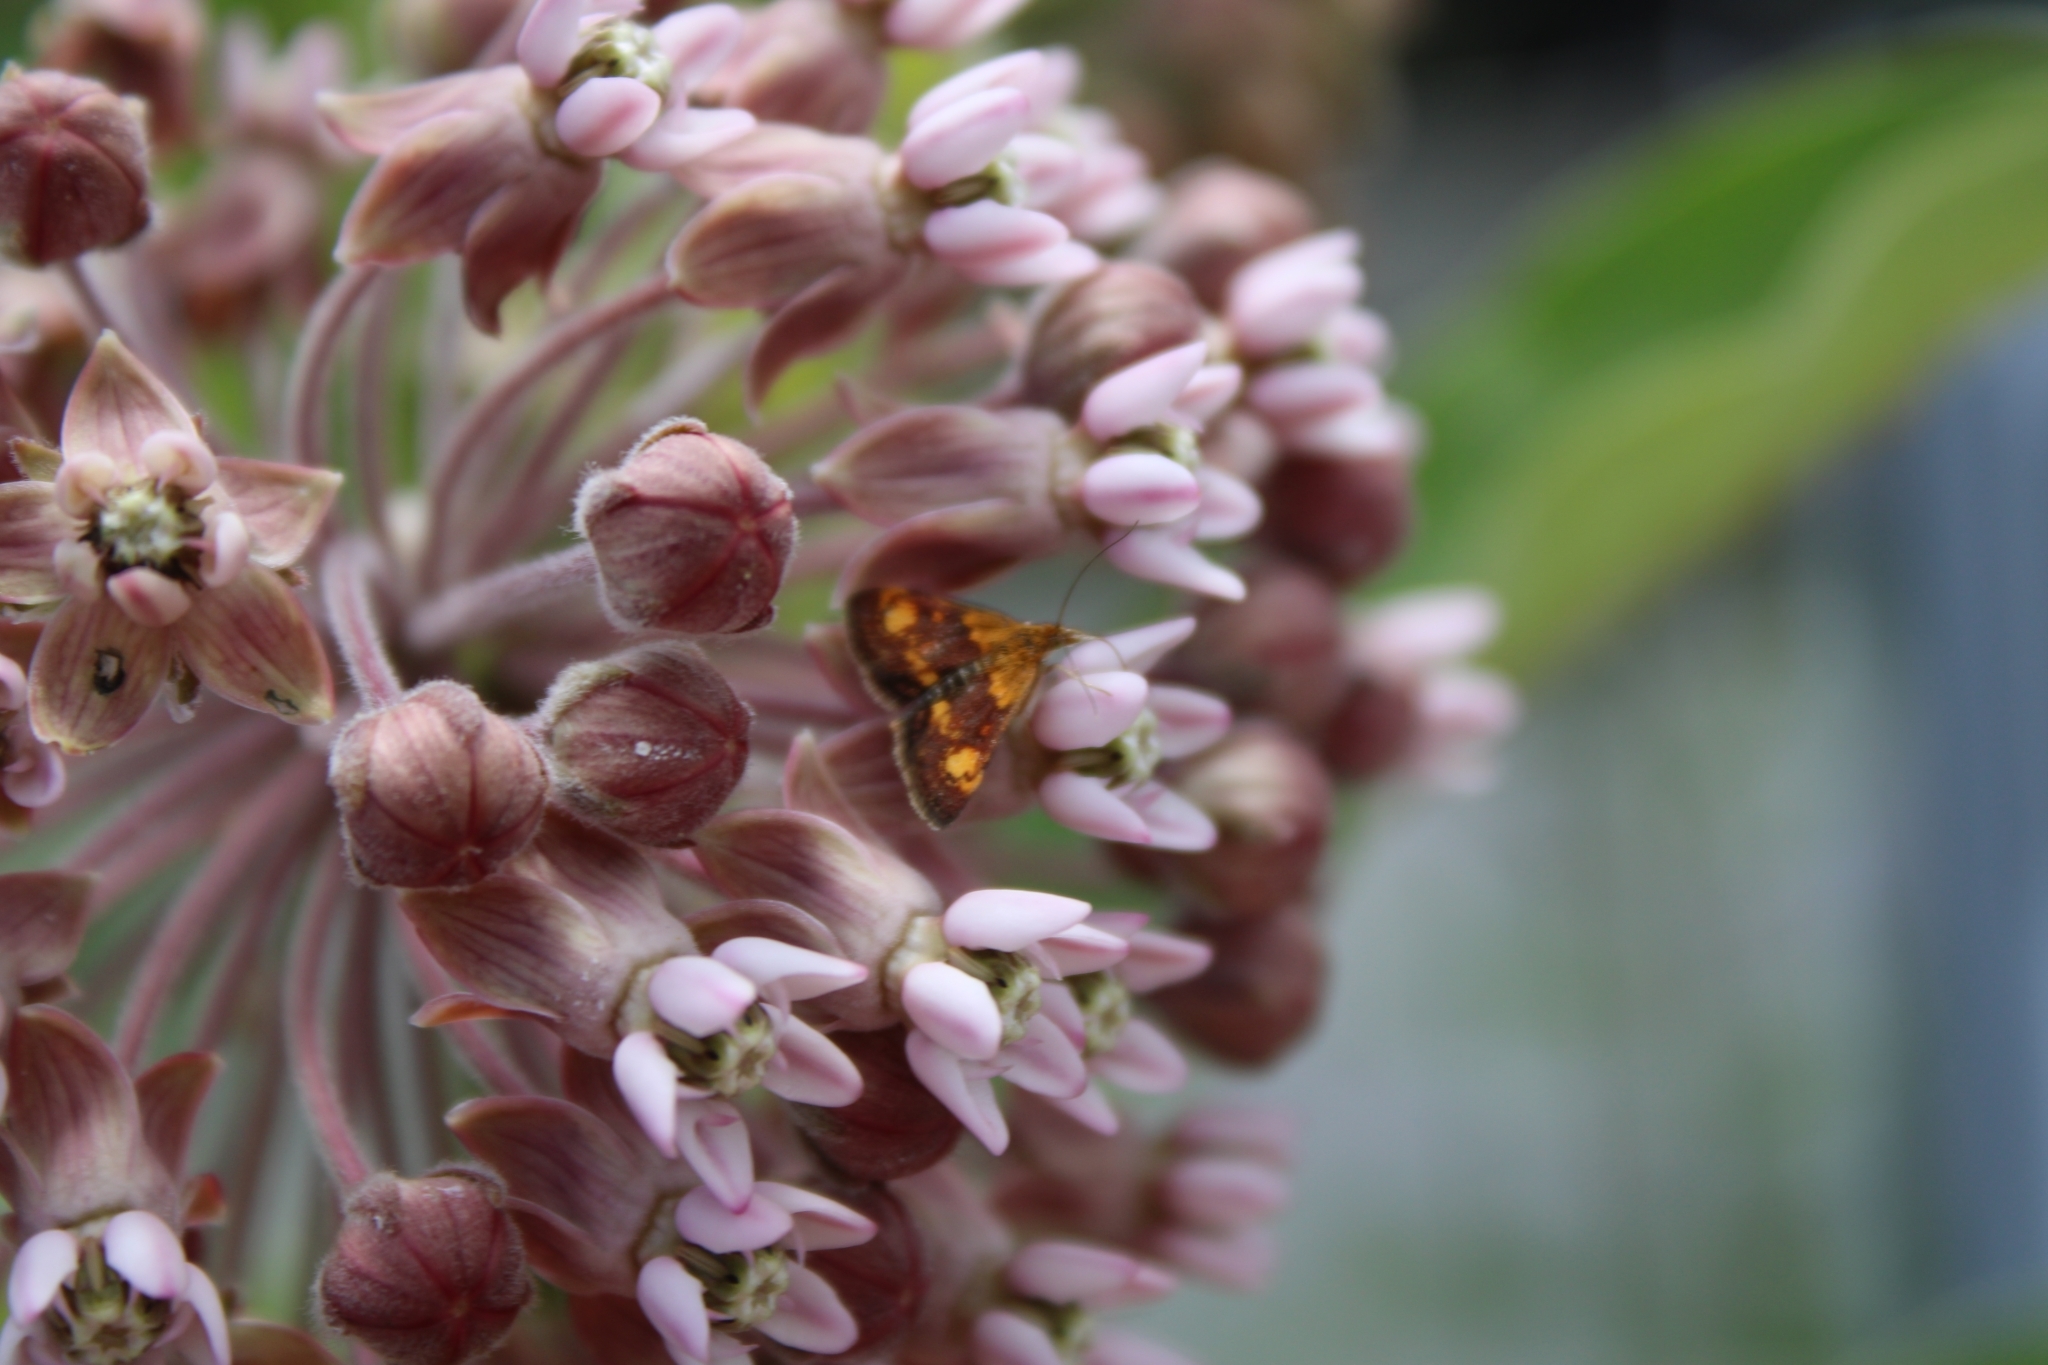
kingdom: Animalia
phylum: Arthropoda
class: Insecta
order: Lepidoptera
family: Crambidae
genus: Pyrausta
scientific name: Pyrausta orphisalis
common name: Orange mint moth
